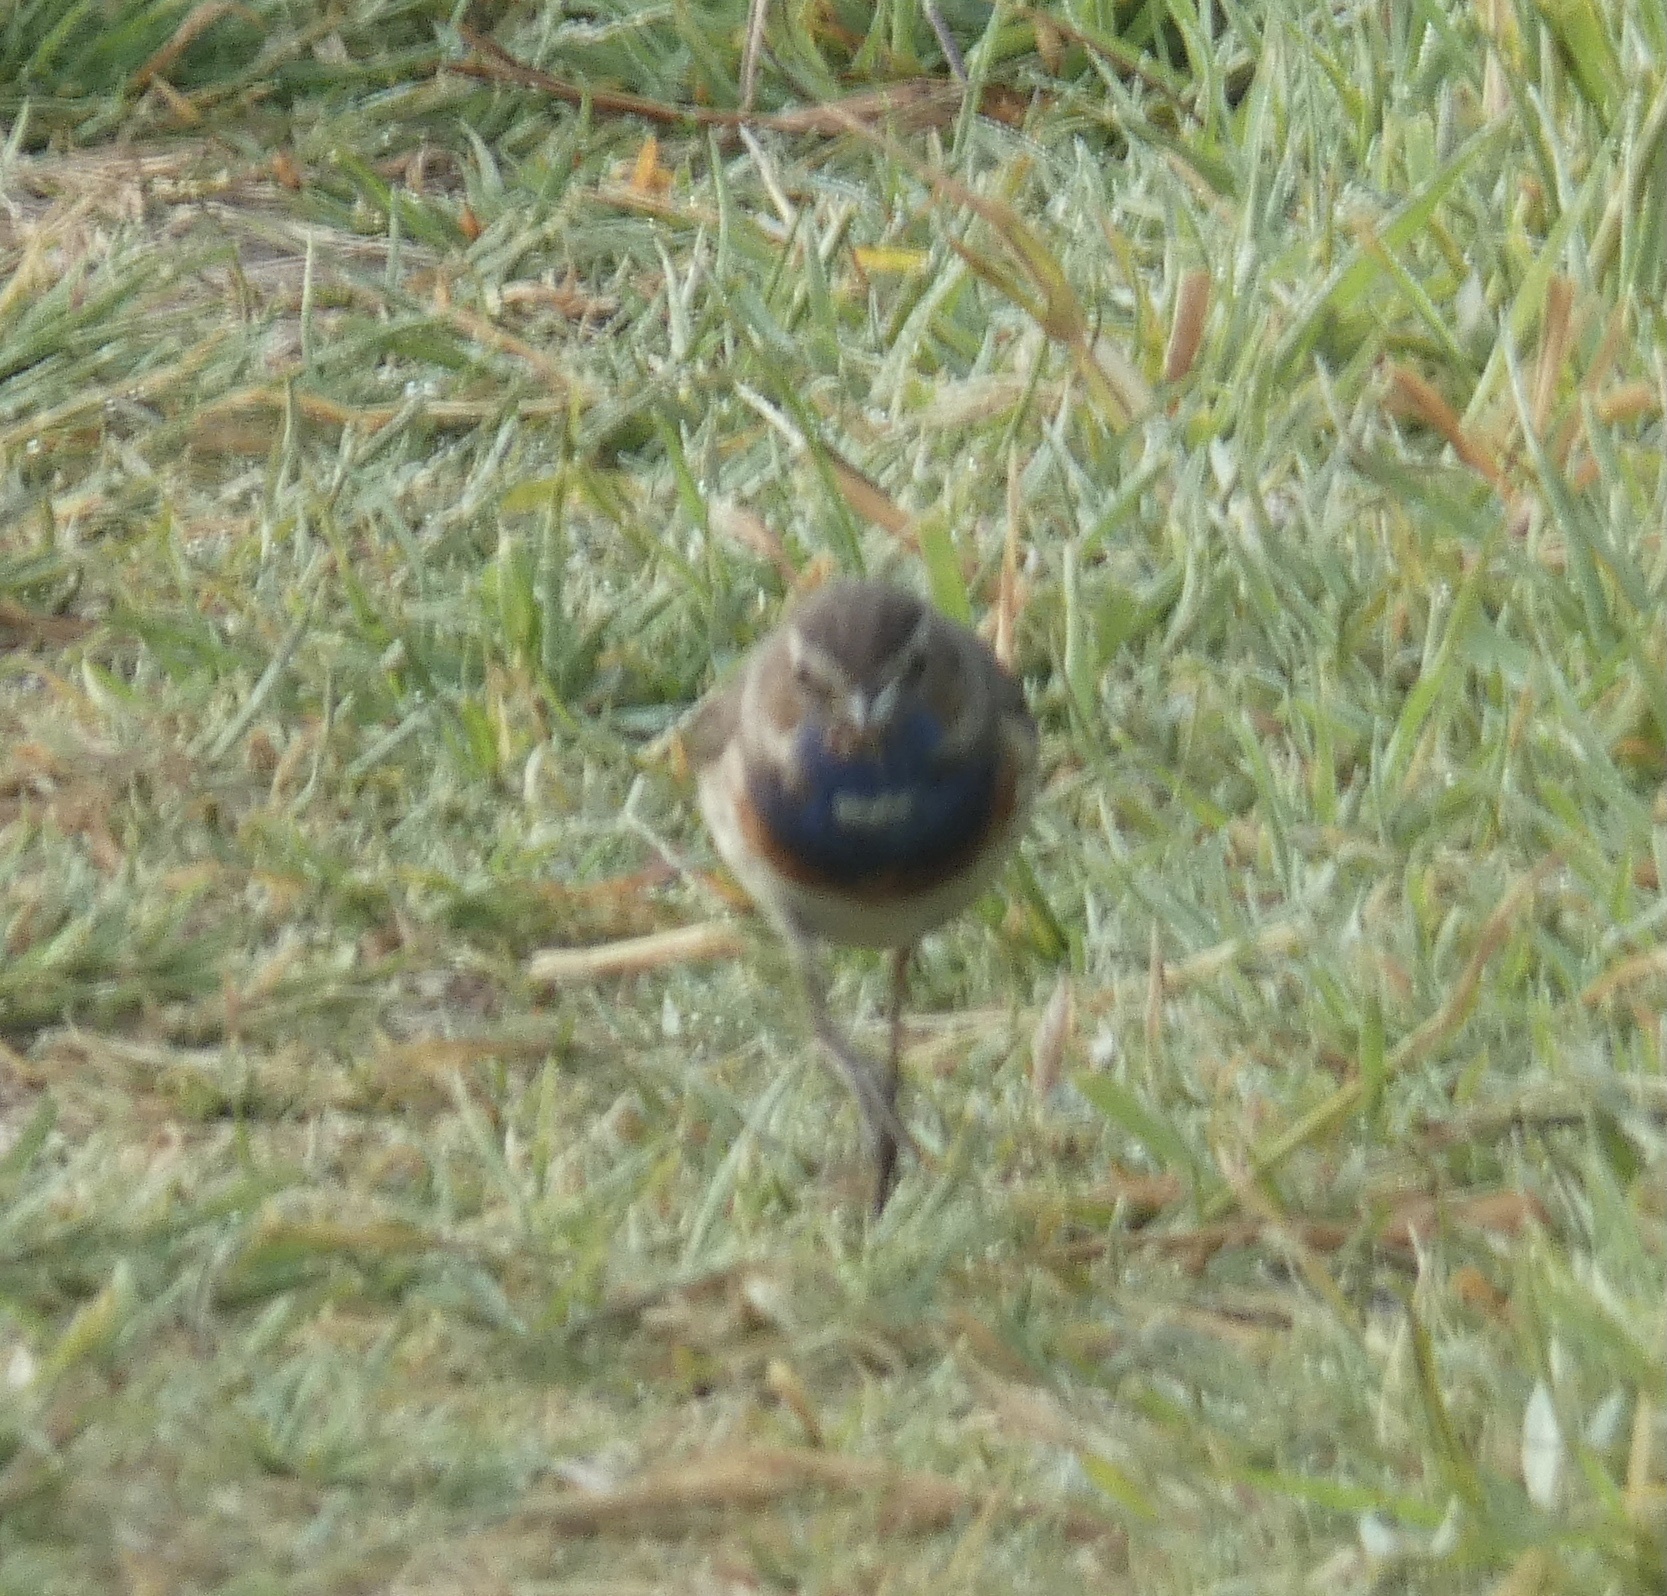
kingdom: Animalia
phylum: Chordata
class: Aves
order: Passeriformes
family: Muscicapidae
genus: Luscinia
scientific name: Luscinia svecica
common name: Bluethroat
